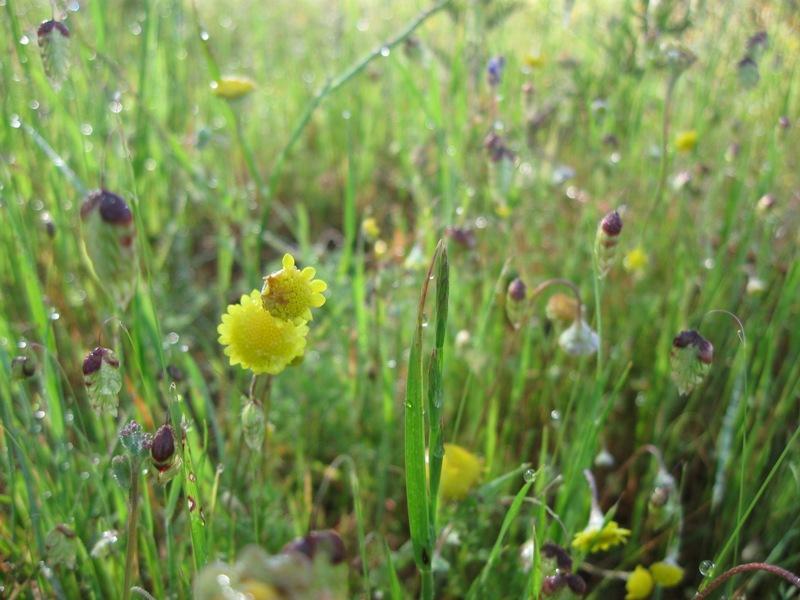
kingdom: Plantae
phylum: Tracheophyta
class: Liliopsida
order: Poales
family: Poaceae
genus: Briza
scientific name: Briza maxima
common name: Big quakinggrass
